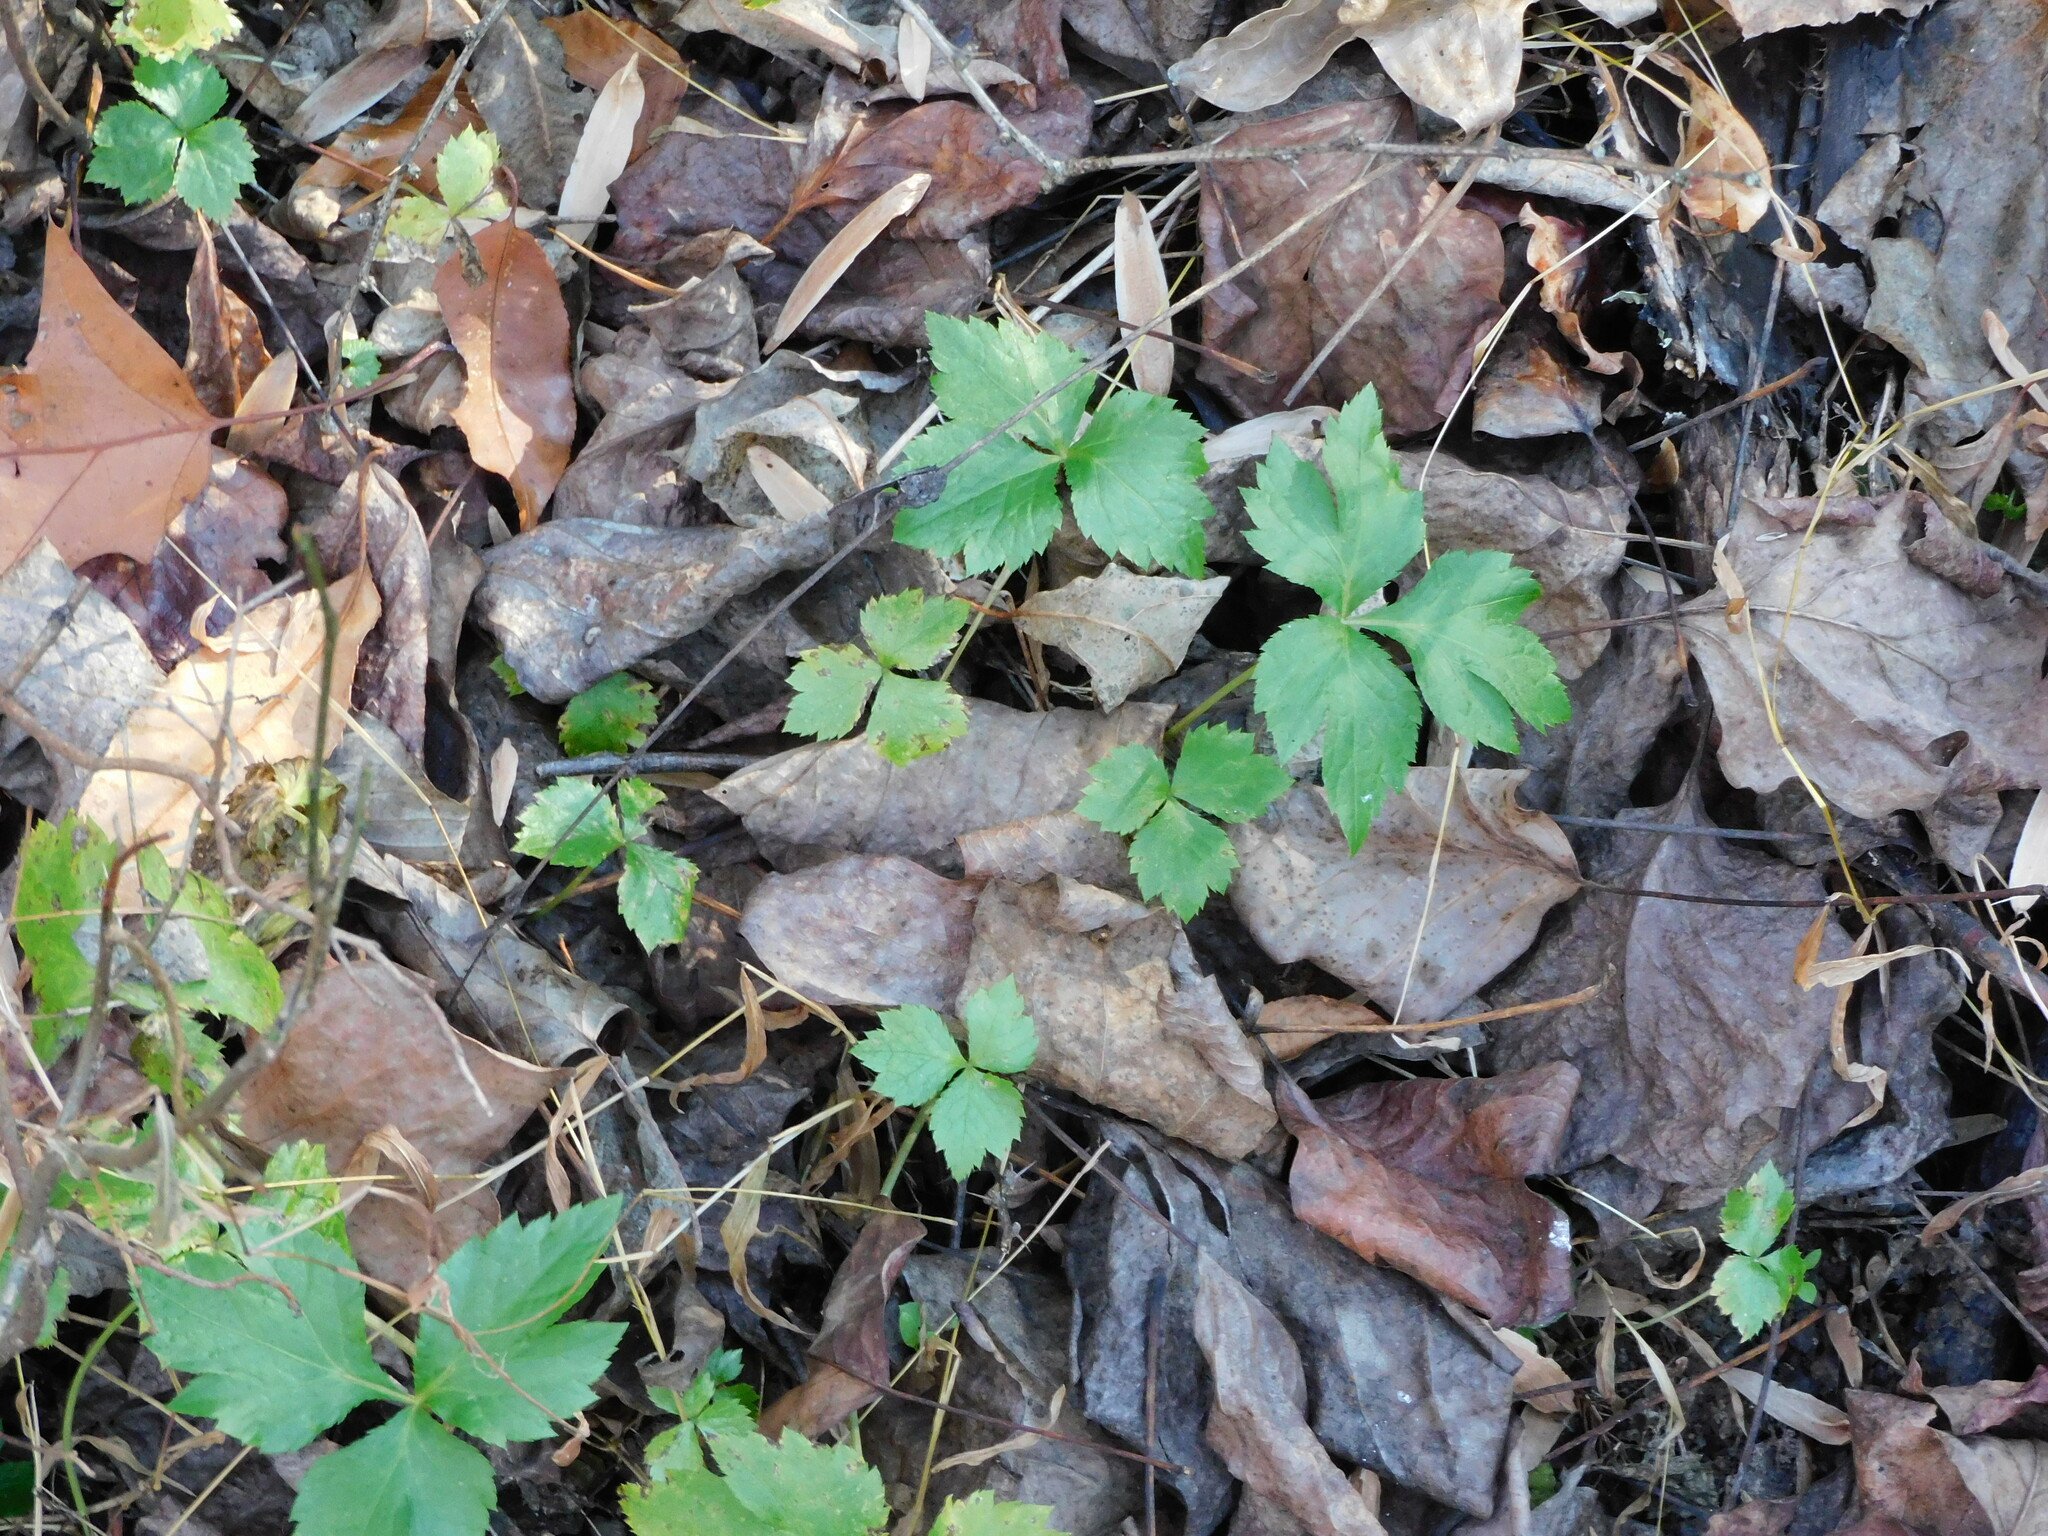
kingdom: Plantae
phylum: Tracheophyta
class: Magnoliopsida
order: Apiales
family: Apiaceae
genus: Cryptotaenia
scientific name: Cryptotaenia canadensis
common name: Honewort
